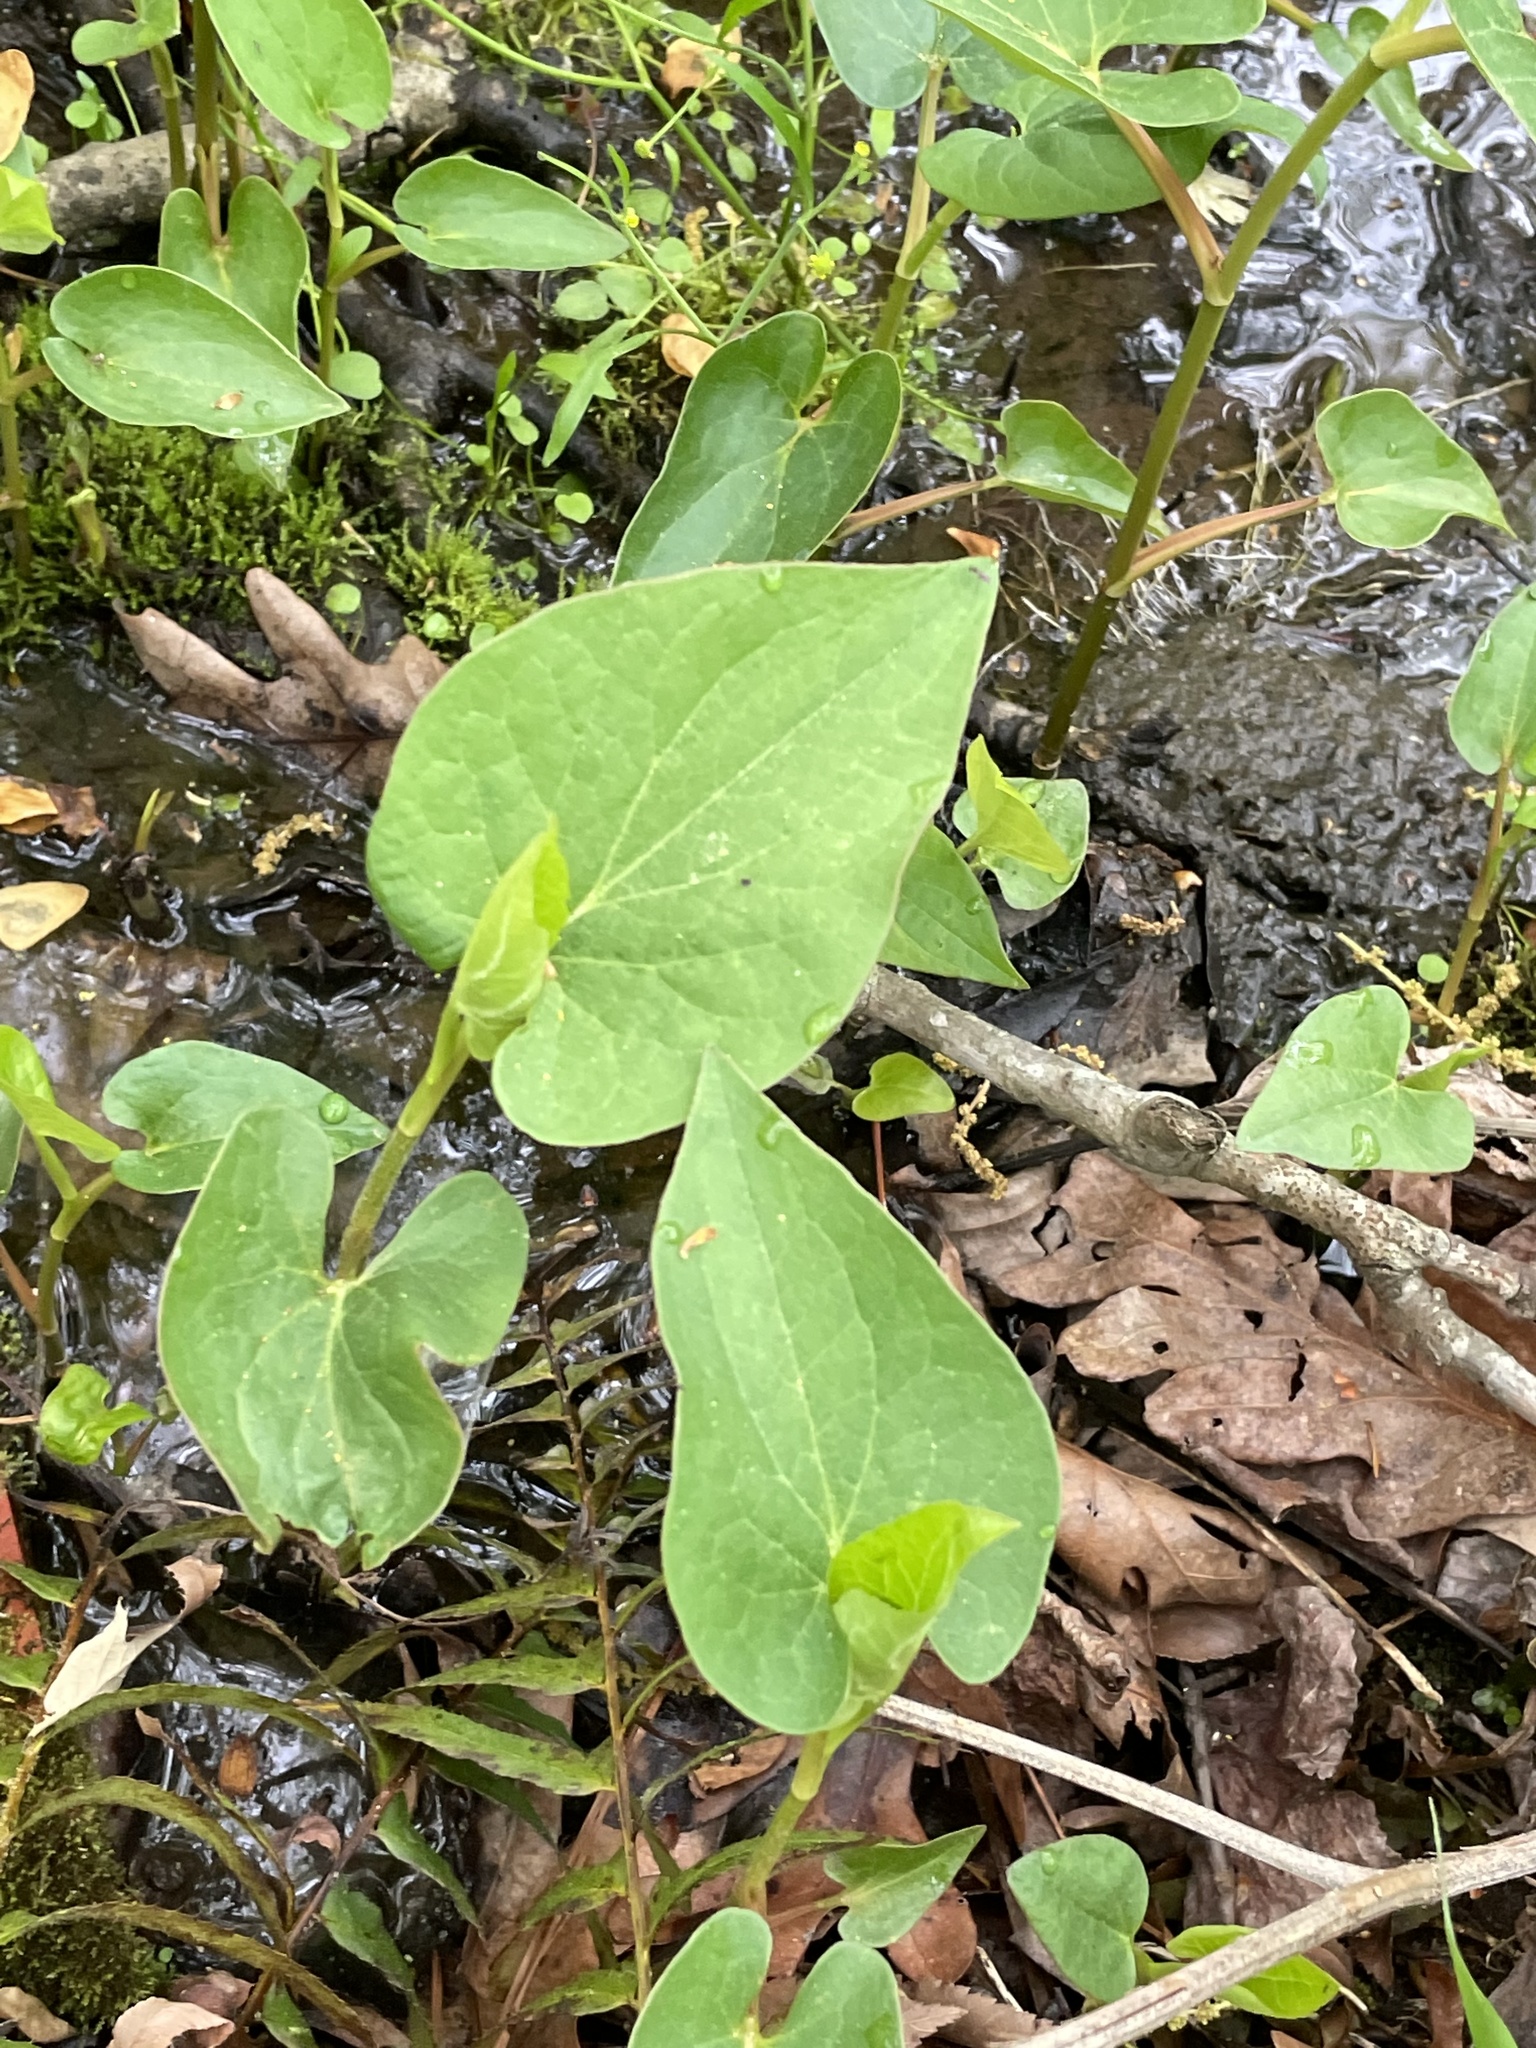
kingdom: Plantae
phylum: Tracheophyta
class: Magnoliopsida
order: Piperales
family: Saururaceae
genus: Saururus
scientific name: Saururus cernuus
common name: Lizard's-tail
